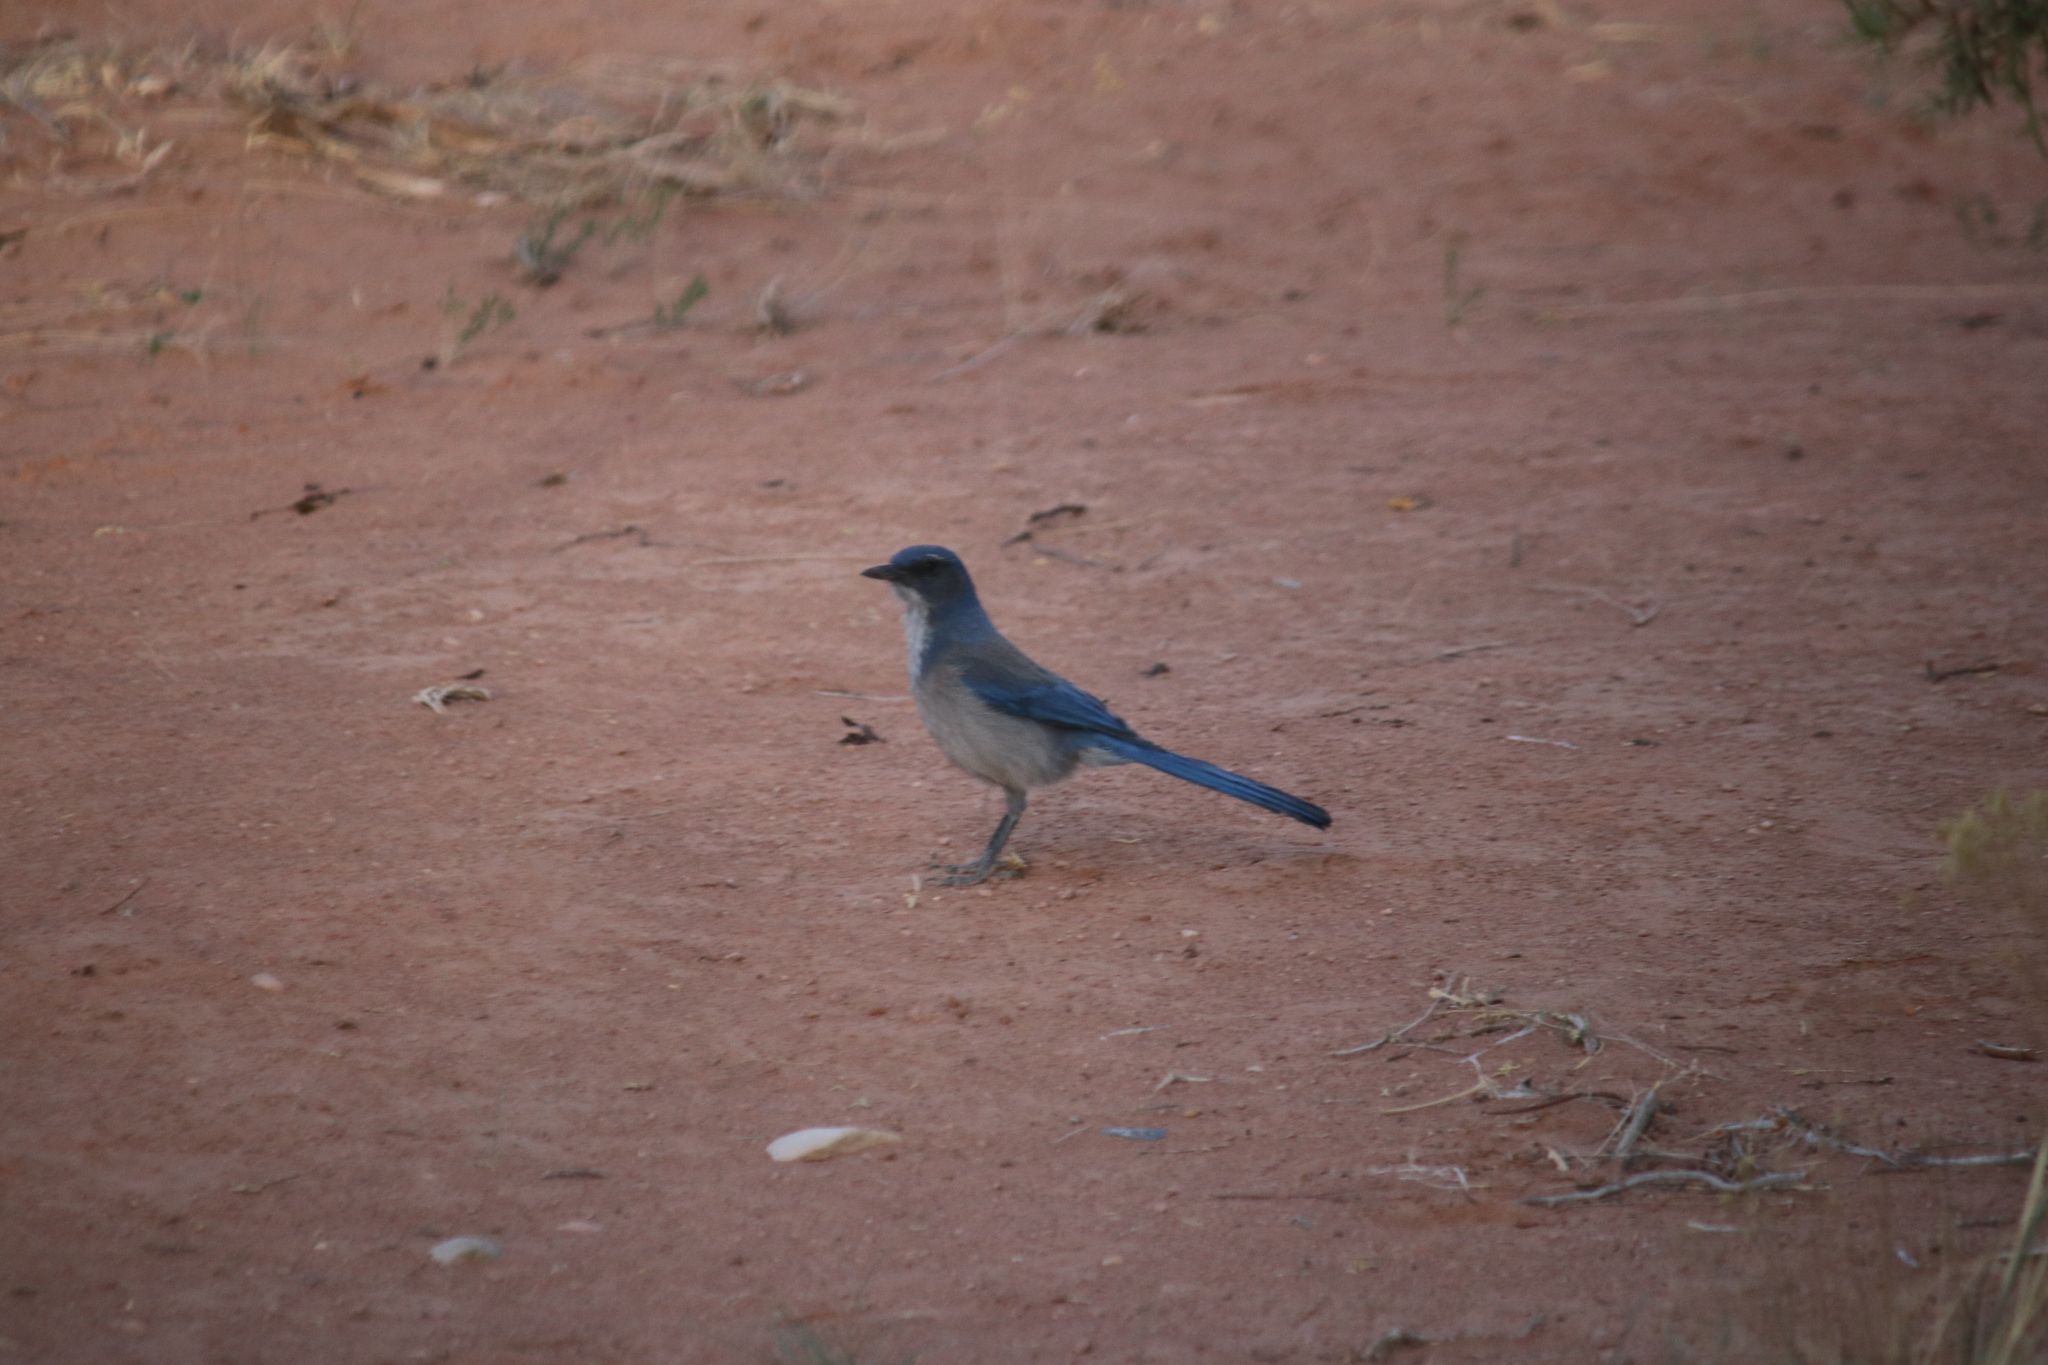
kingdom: Animalia
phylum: Chordata
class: Aves
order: Passeriformes
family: Corvidae
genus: Aphelocoma
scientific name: Aphelocoma woodhouseii
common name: Woodhouse's scrub-jay
